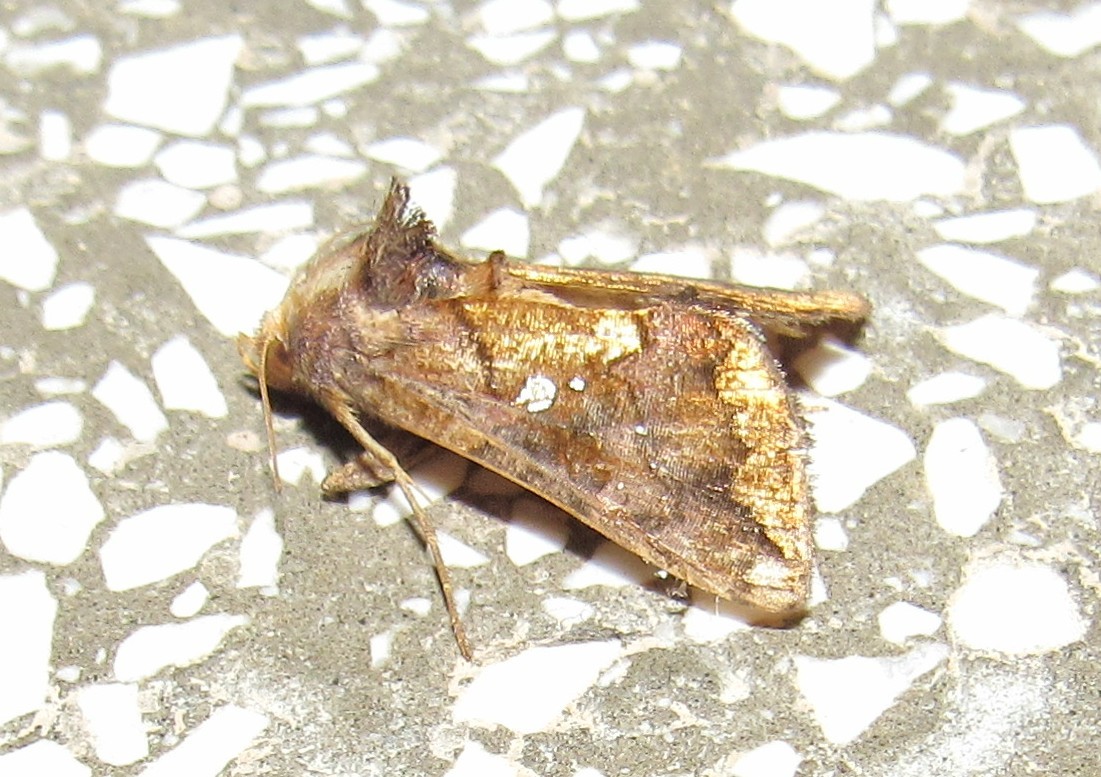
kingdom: Animalia
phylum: Arthropoda
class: Insecta
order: Lepidoptera
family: Noctuidae
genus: Argyrogramma
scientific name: Argyrogramma verruca
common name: Golden looper moth
